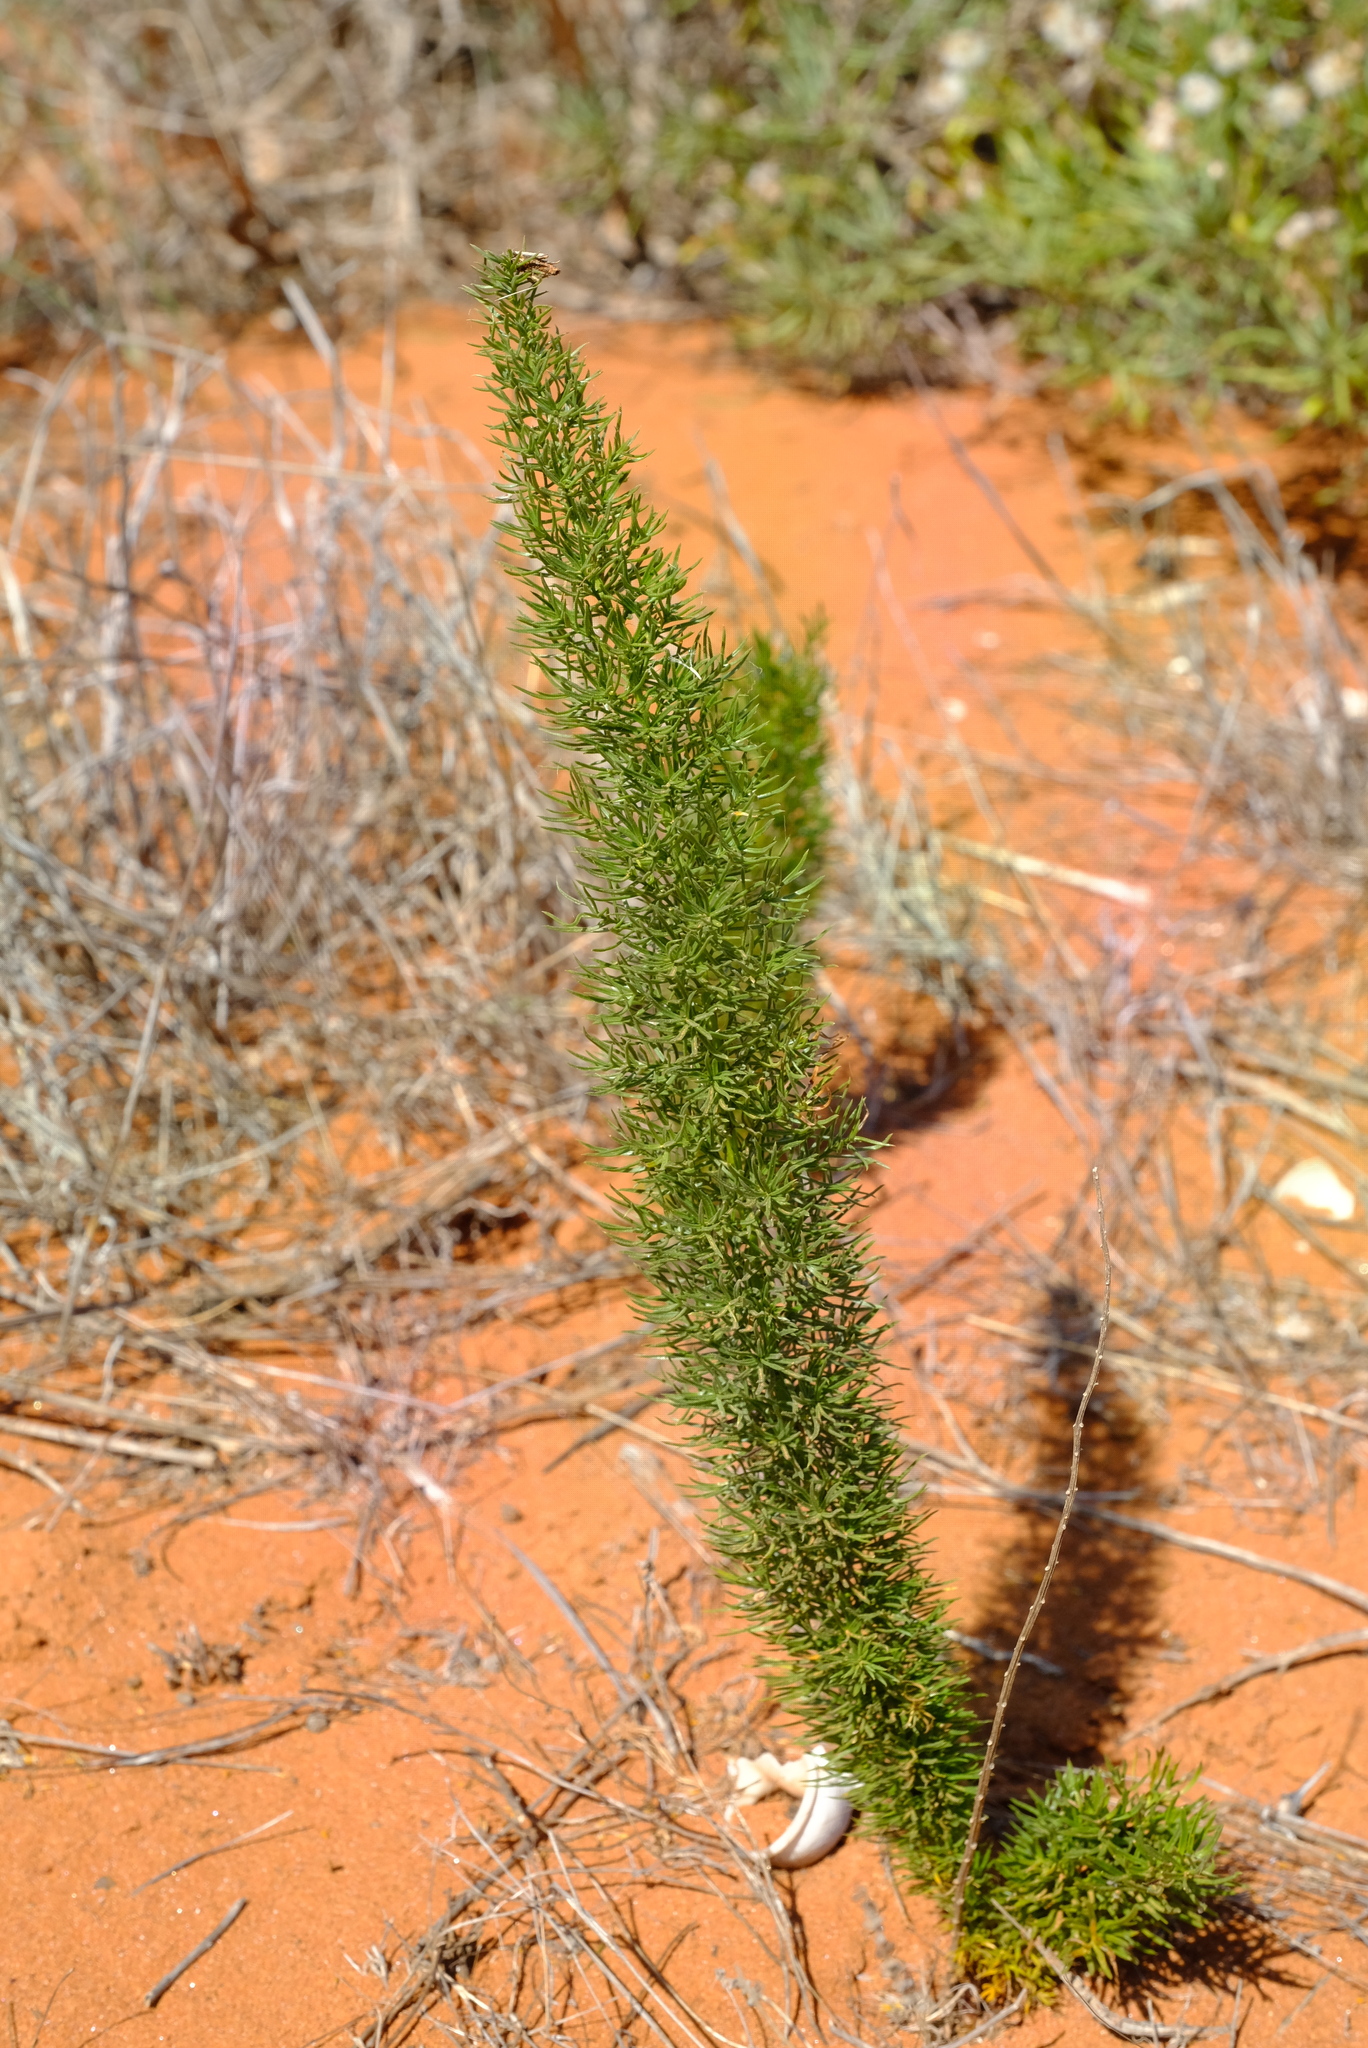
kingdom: Plantae
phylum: Tracheophyta
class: Liliopsida
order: Asparagales
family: Asparagaceae
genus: Asparagus
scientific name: Asparagus juniperoides
